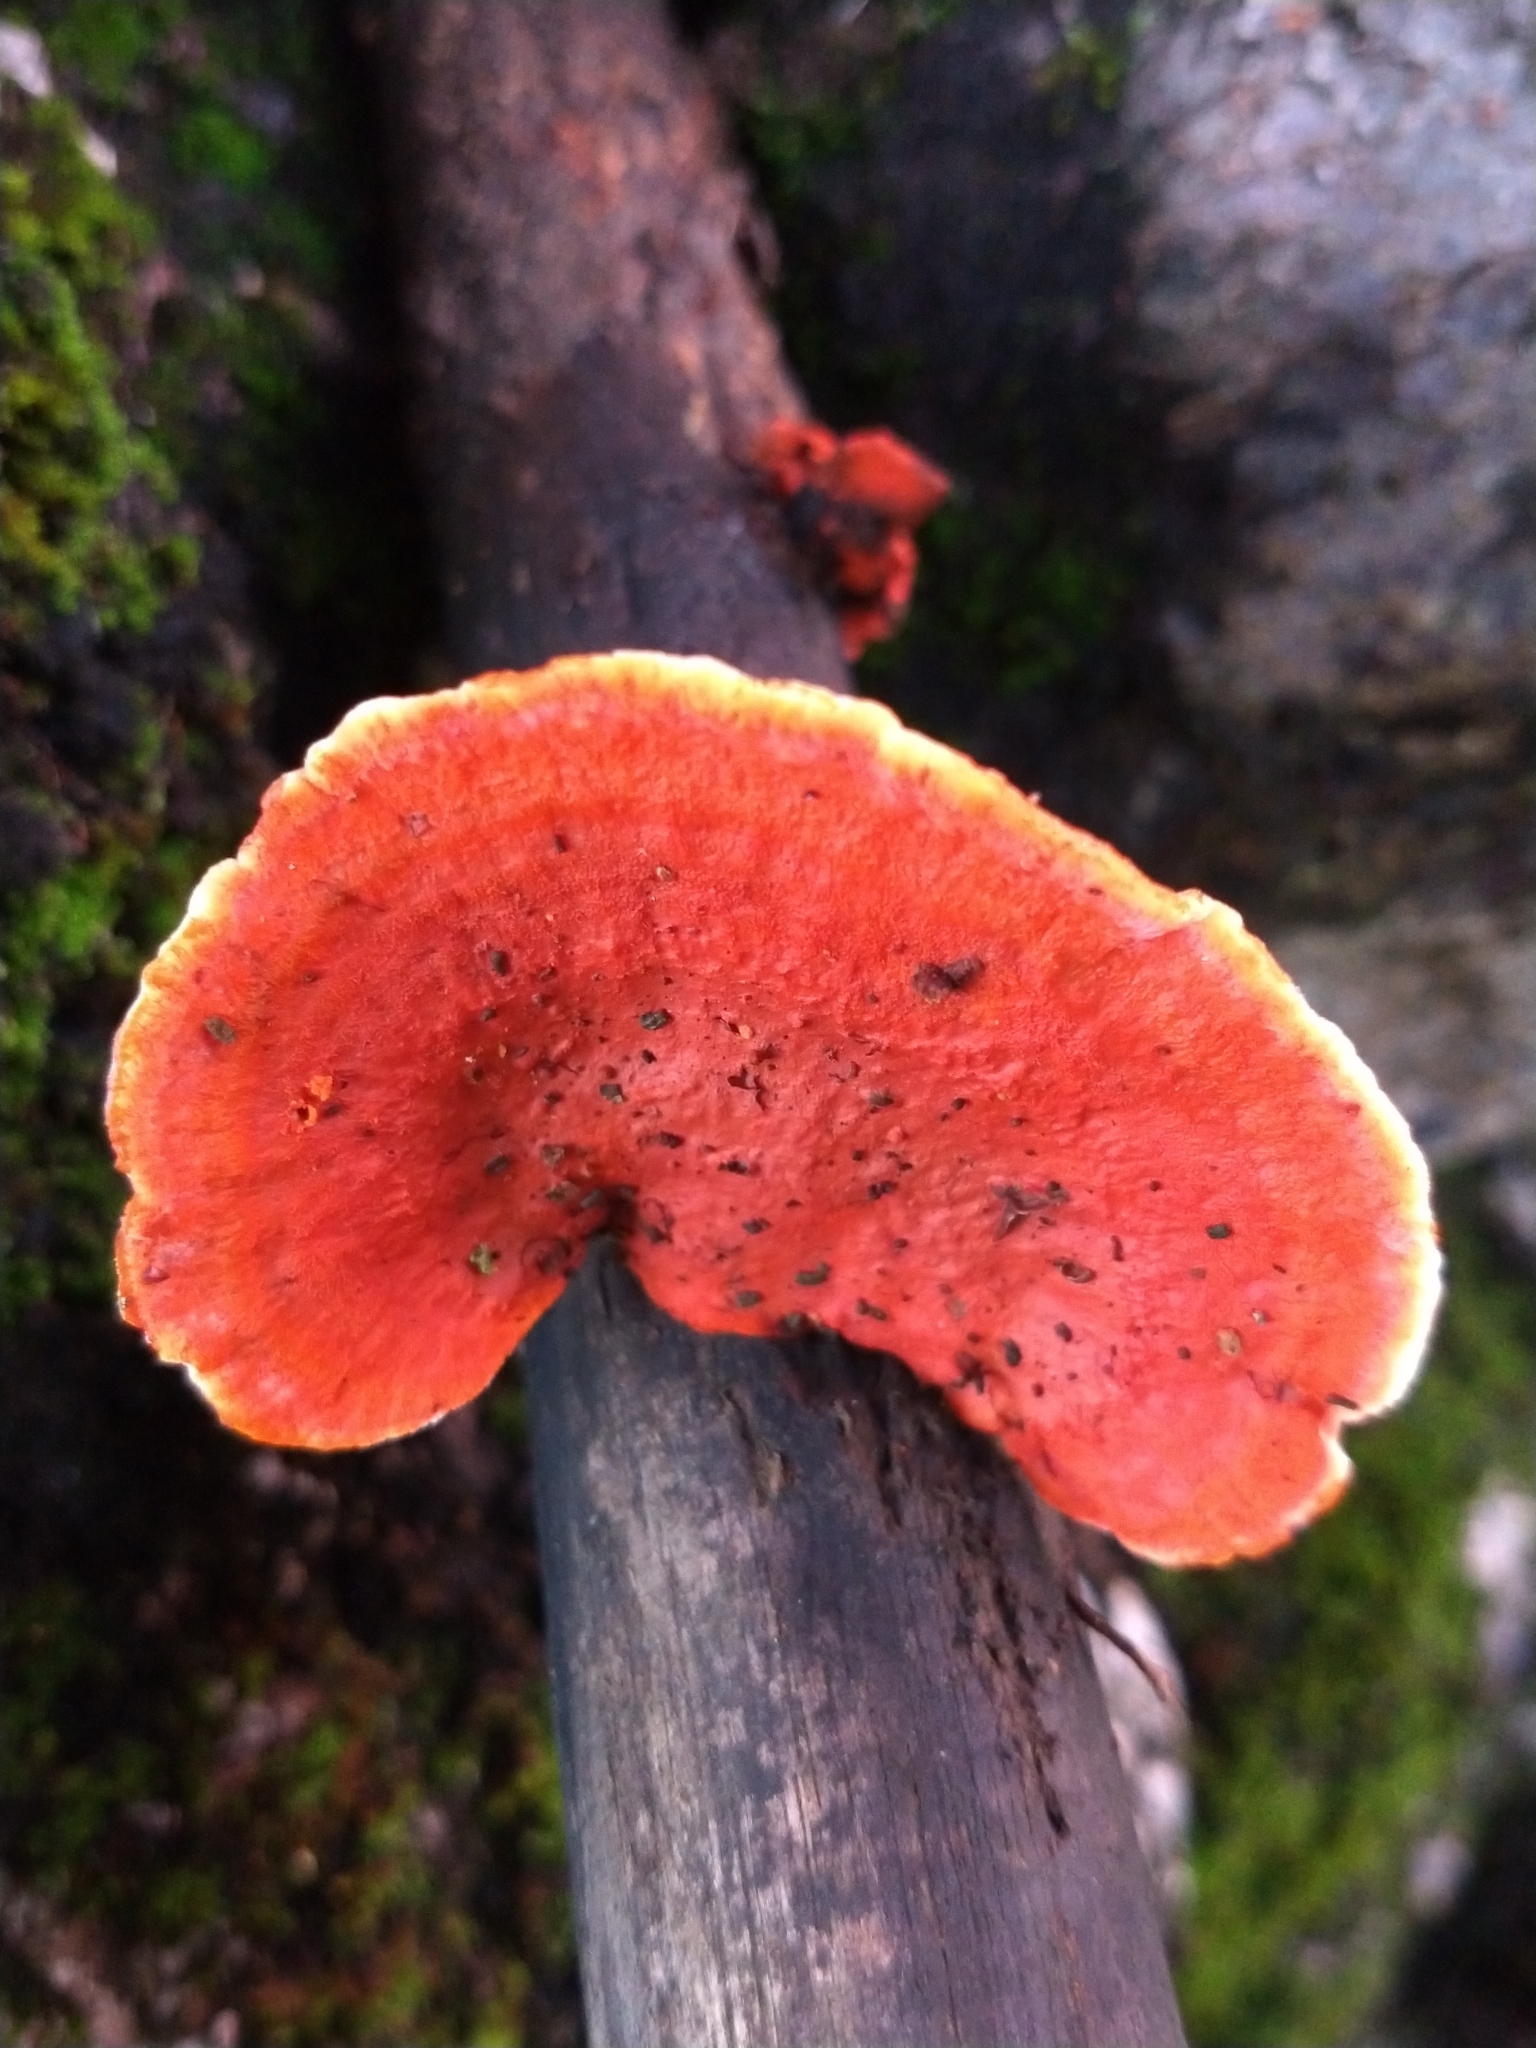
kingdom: Fungi
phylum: Basidiomycota
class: Agaricomycetes
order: Polyporales
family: Polyporaceae
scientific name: Polyporaceae
